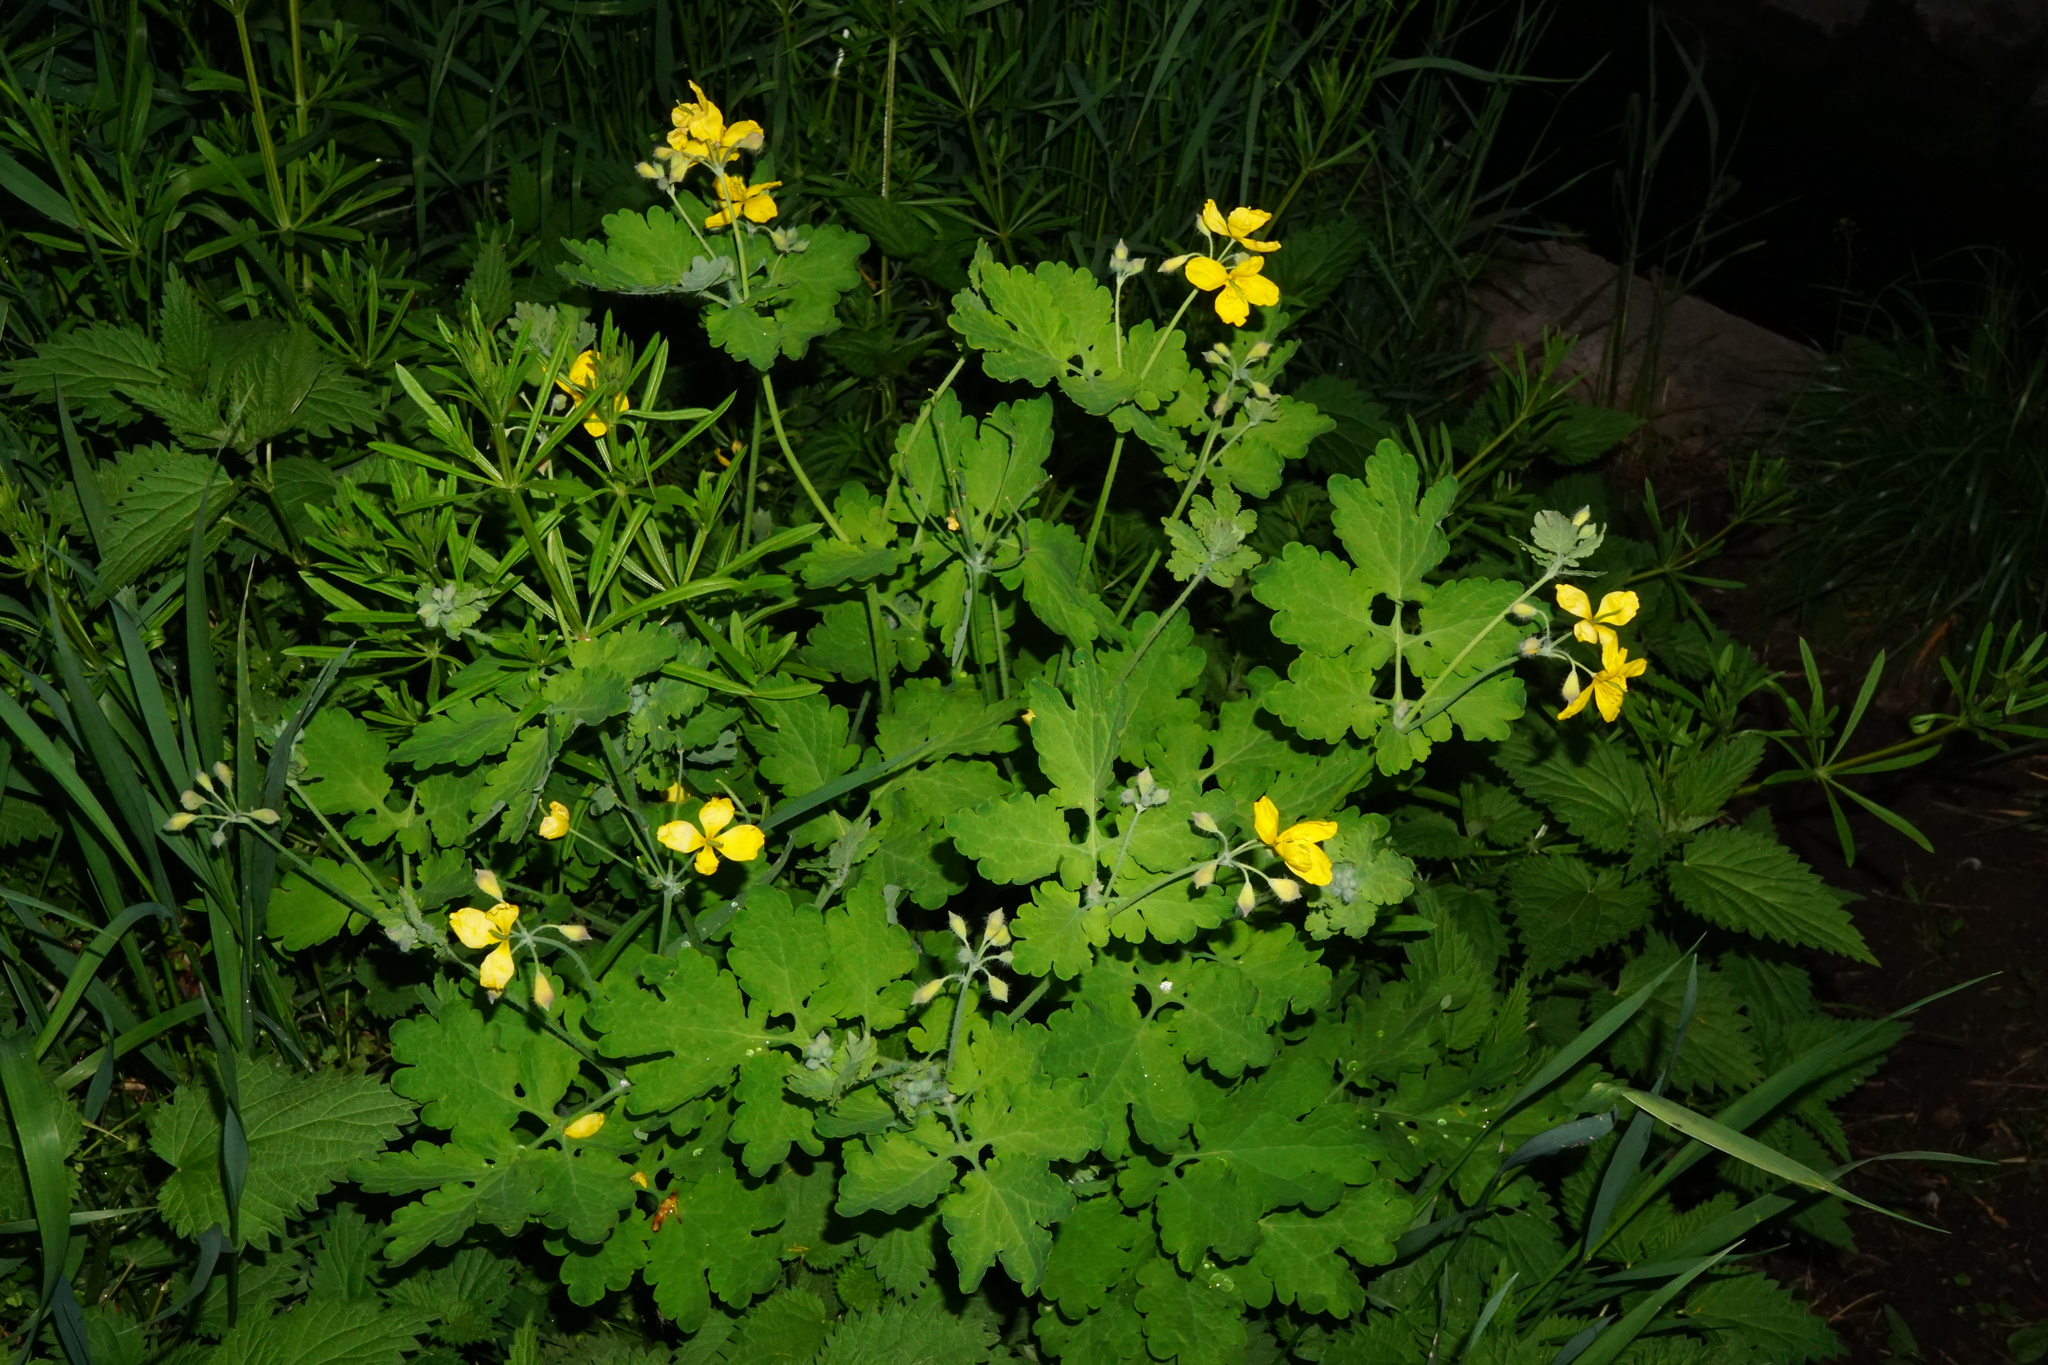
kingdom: Plantae
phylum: Tracheophyta
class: Magnoliopsida
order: Ranunculales
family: Papaveraceae
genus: Chelidonium
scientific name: Chelidonium majus
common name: Greater celandine
